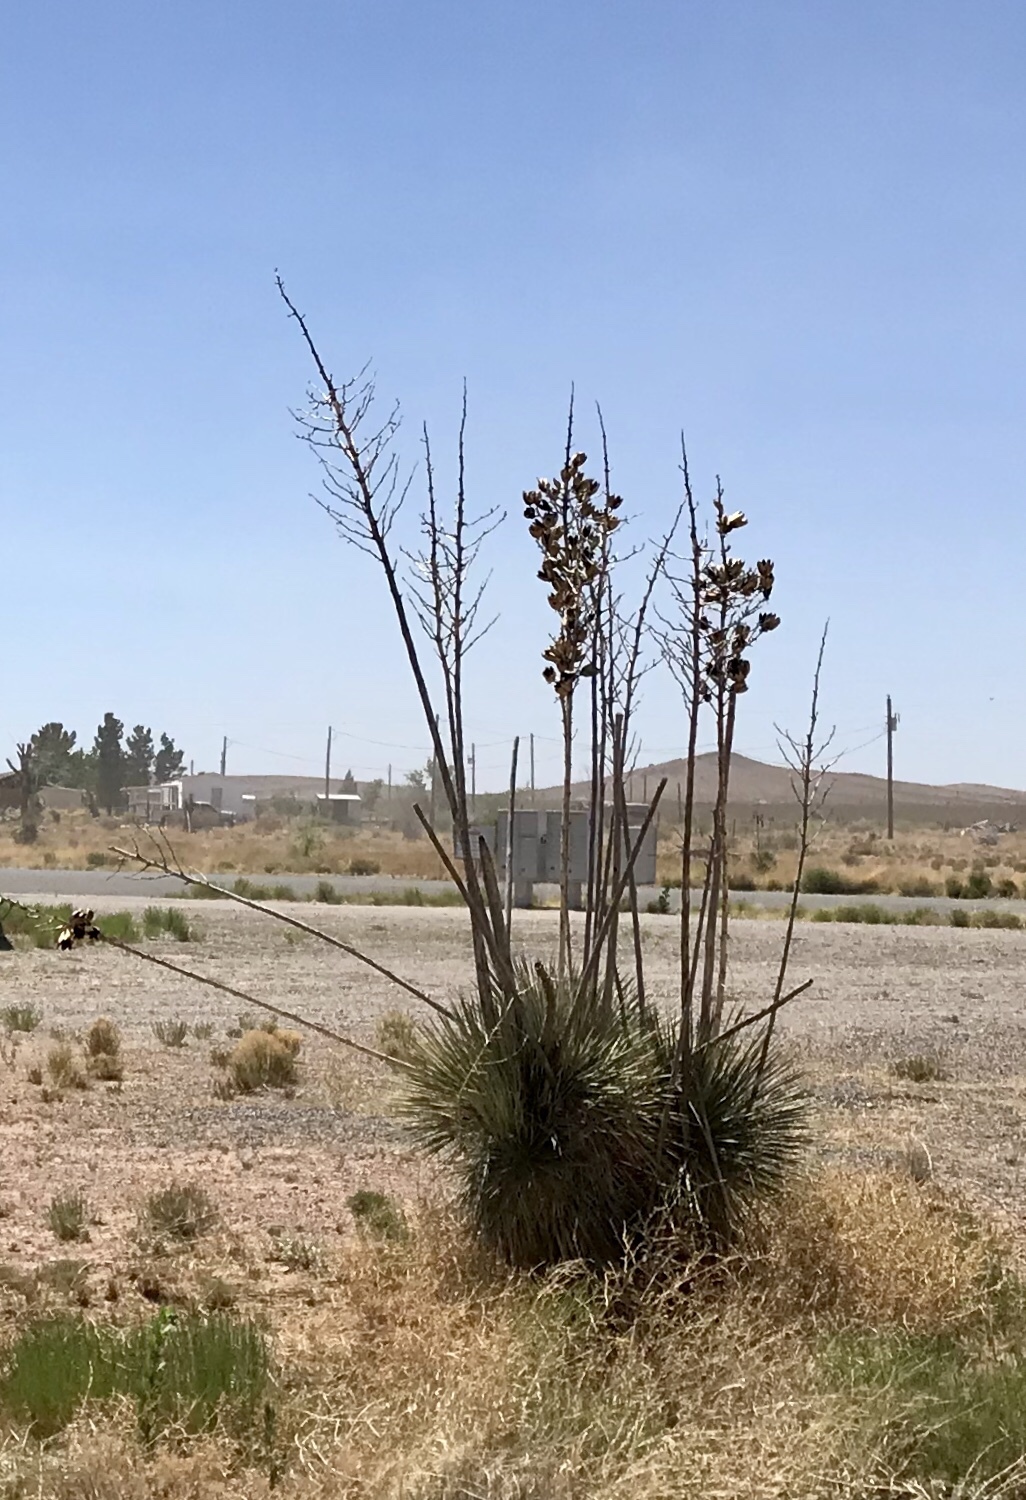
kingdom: Plantae
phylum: Tracheophyta
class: Liliopsida
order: Asparagales
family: Asparagaceae
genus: Yucca
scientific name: Yucca elata
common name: Palmella
